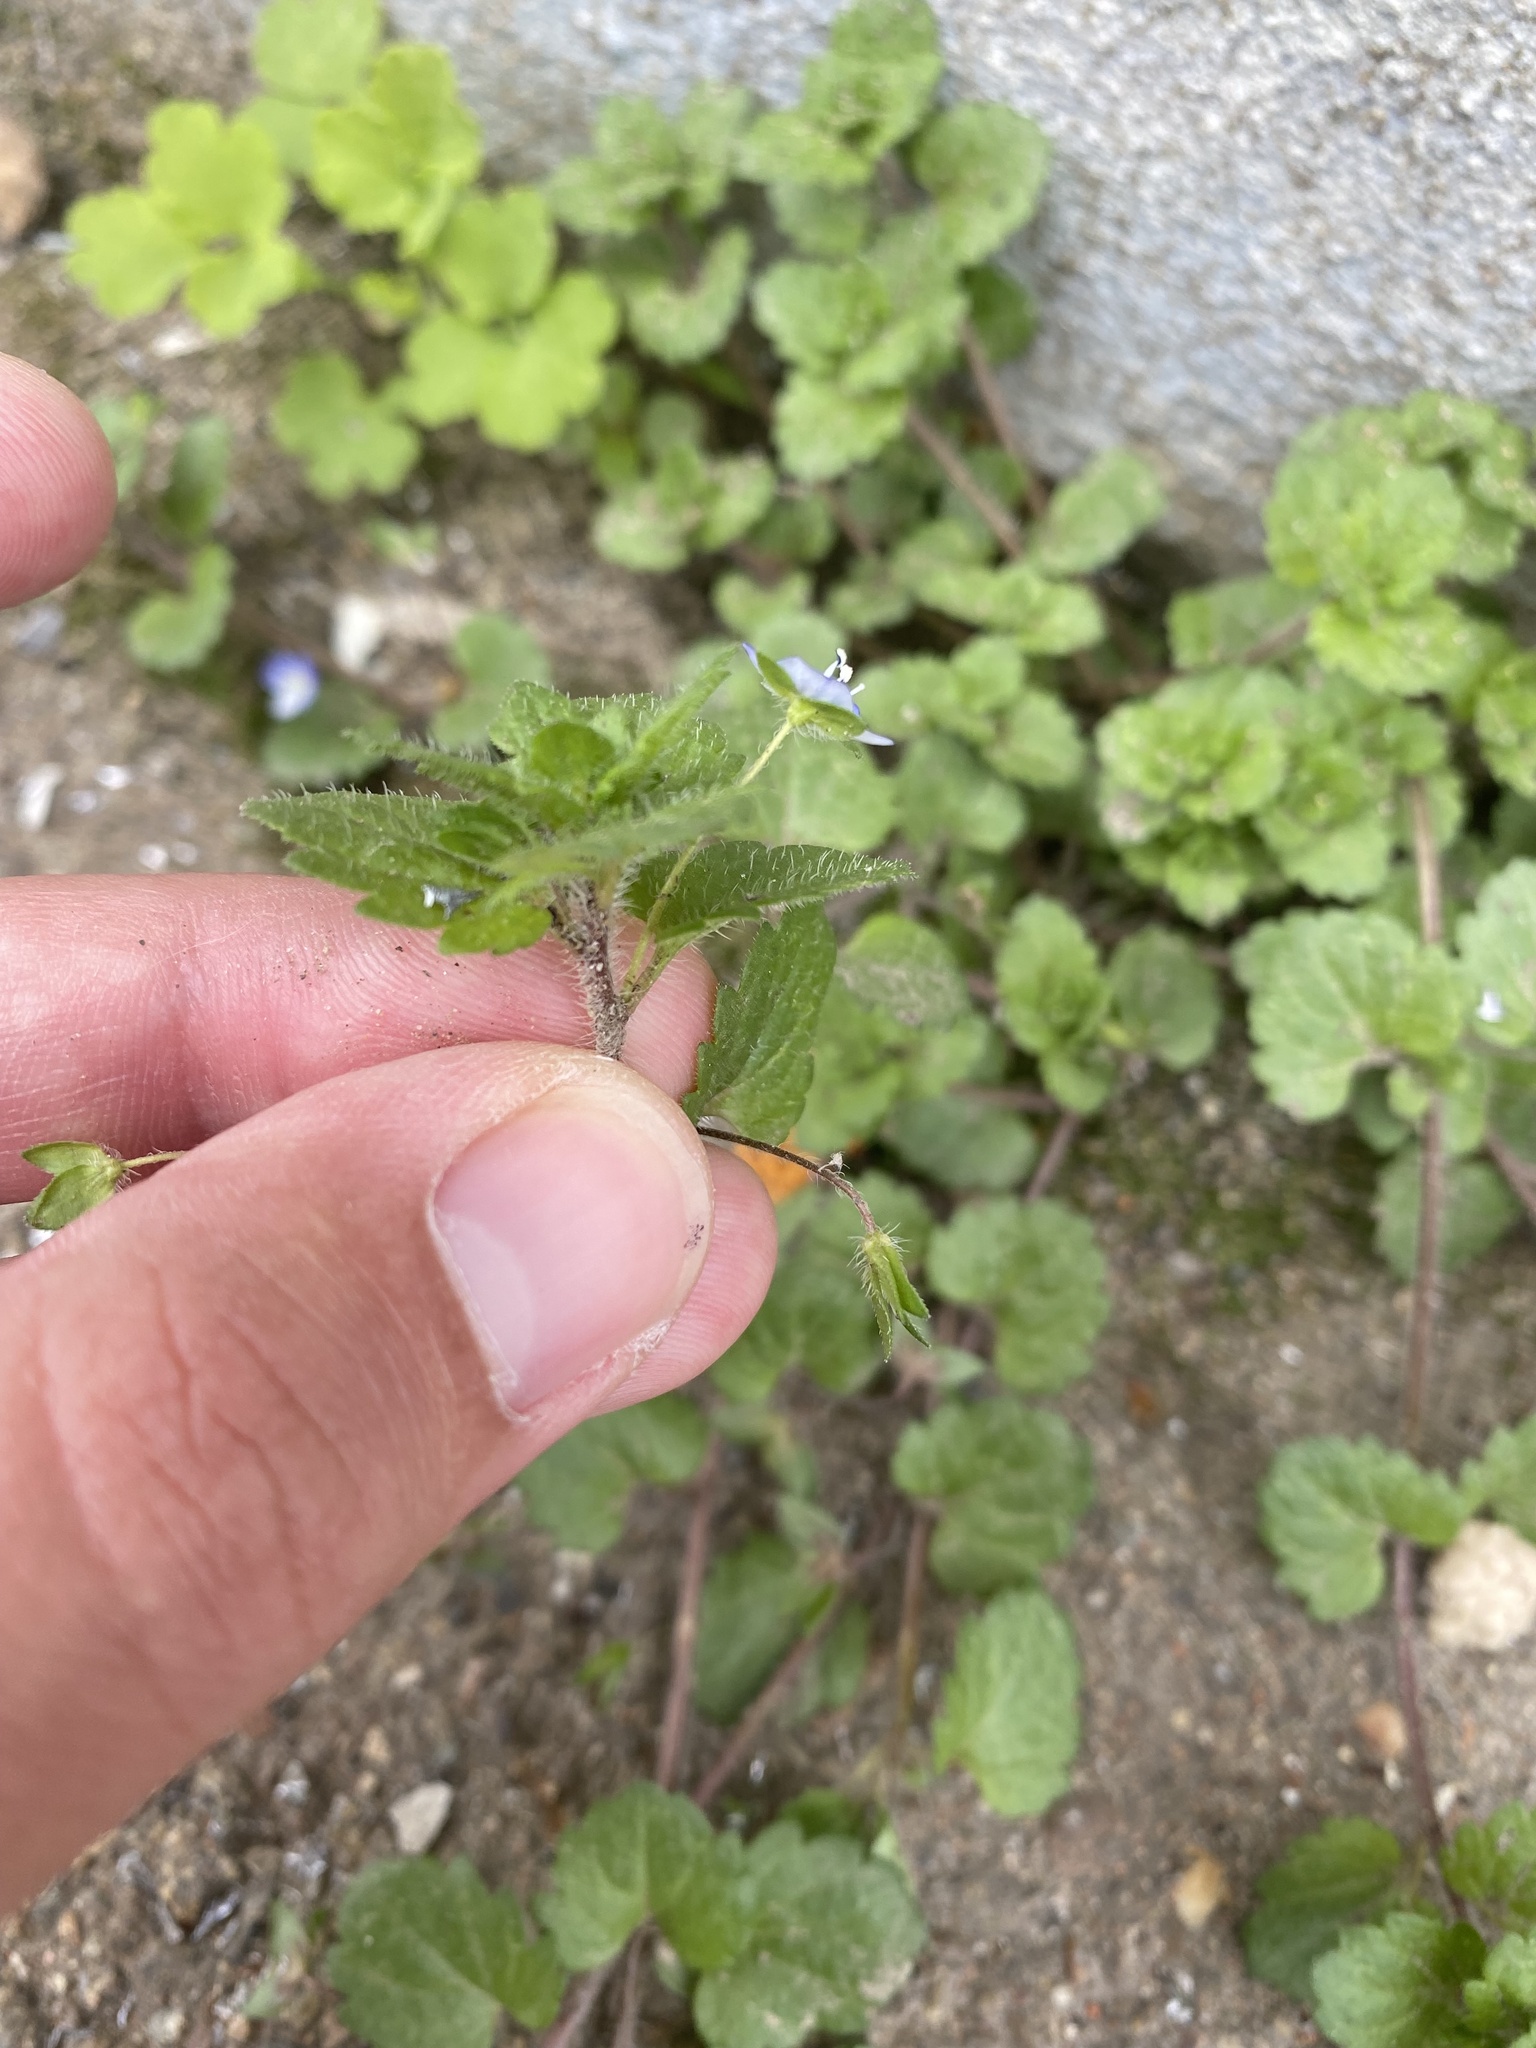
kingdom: Plantae
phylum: Tracheophyta
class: Magnoliopsida
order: Lamiales
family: Plantaginaceae
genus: Veronica
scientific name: Veronica persica
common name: Common field-speedwell
